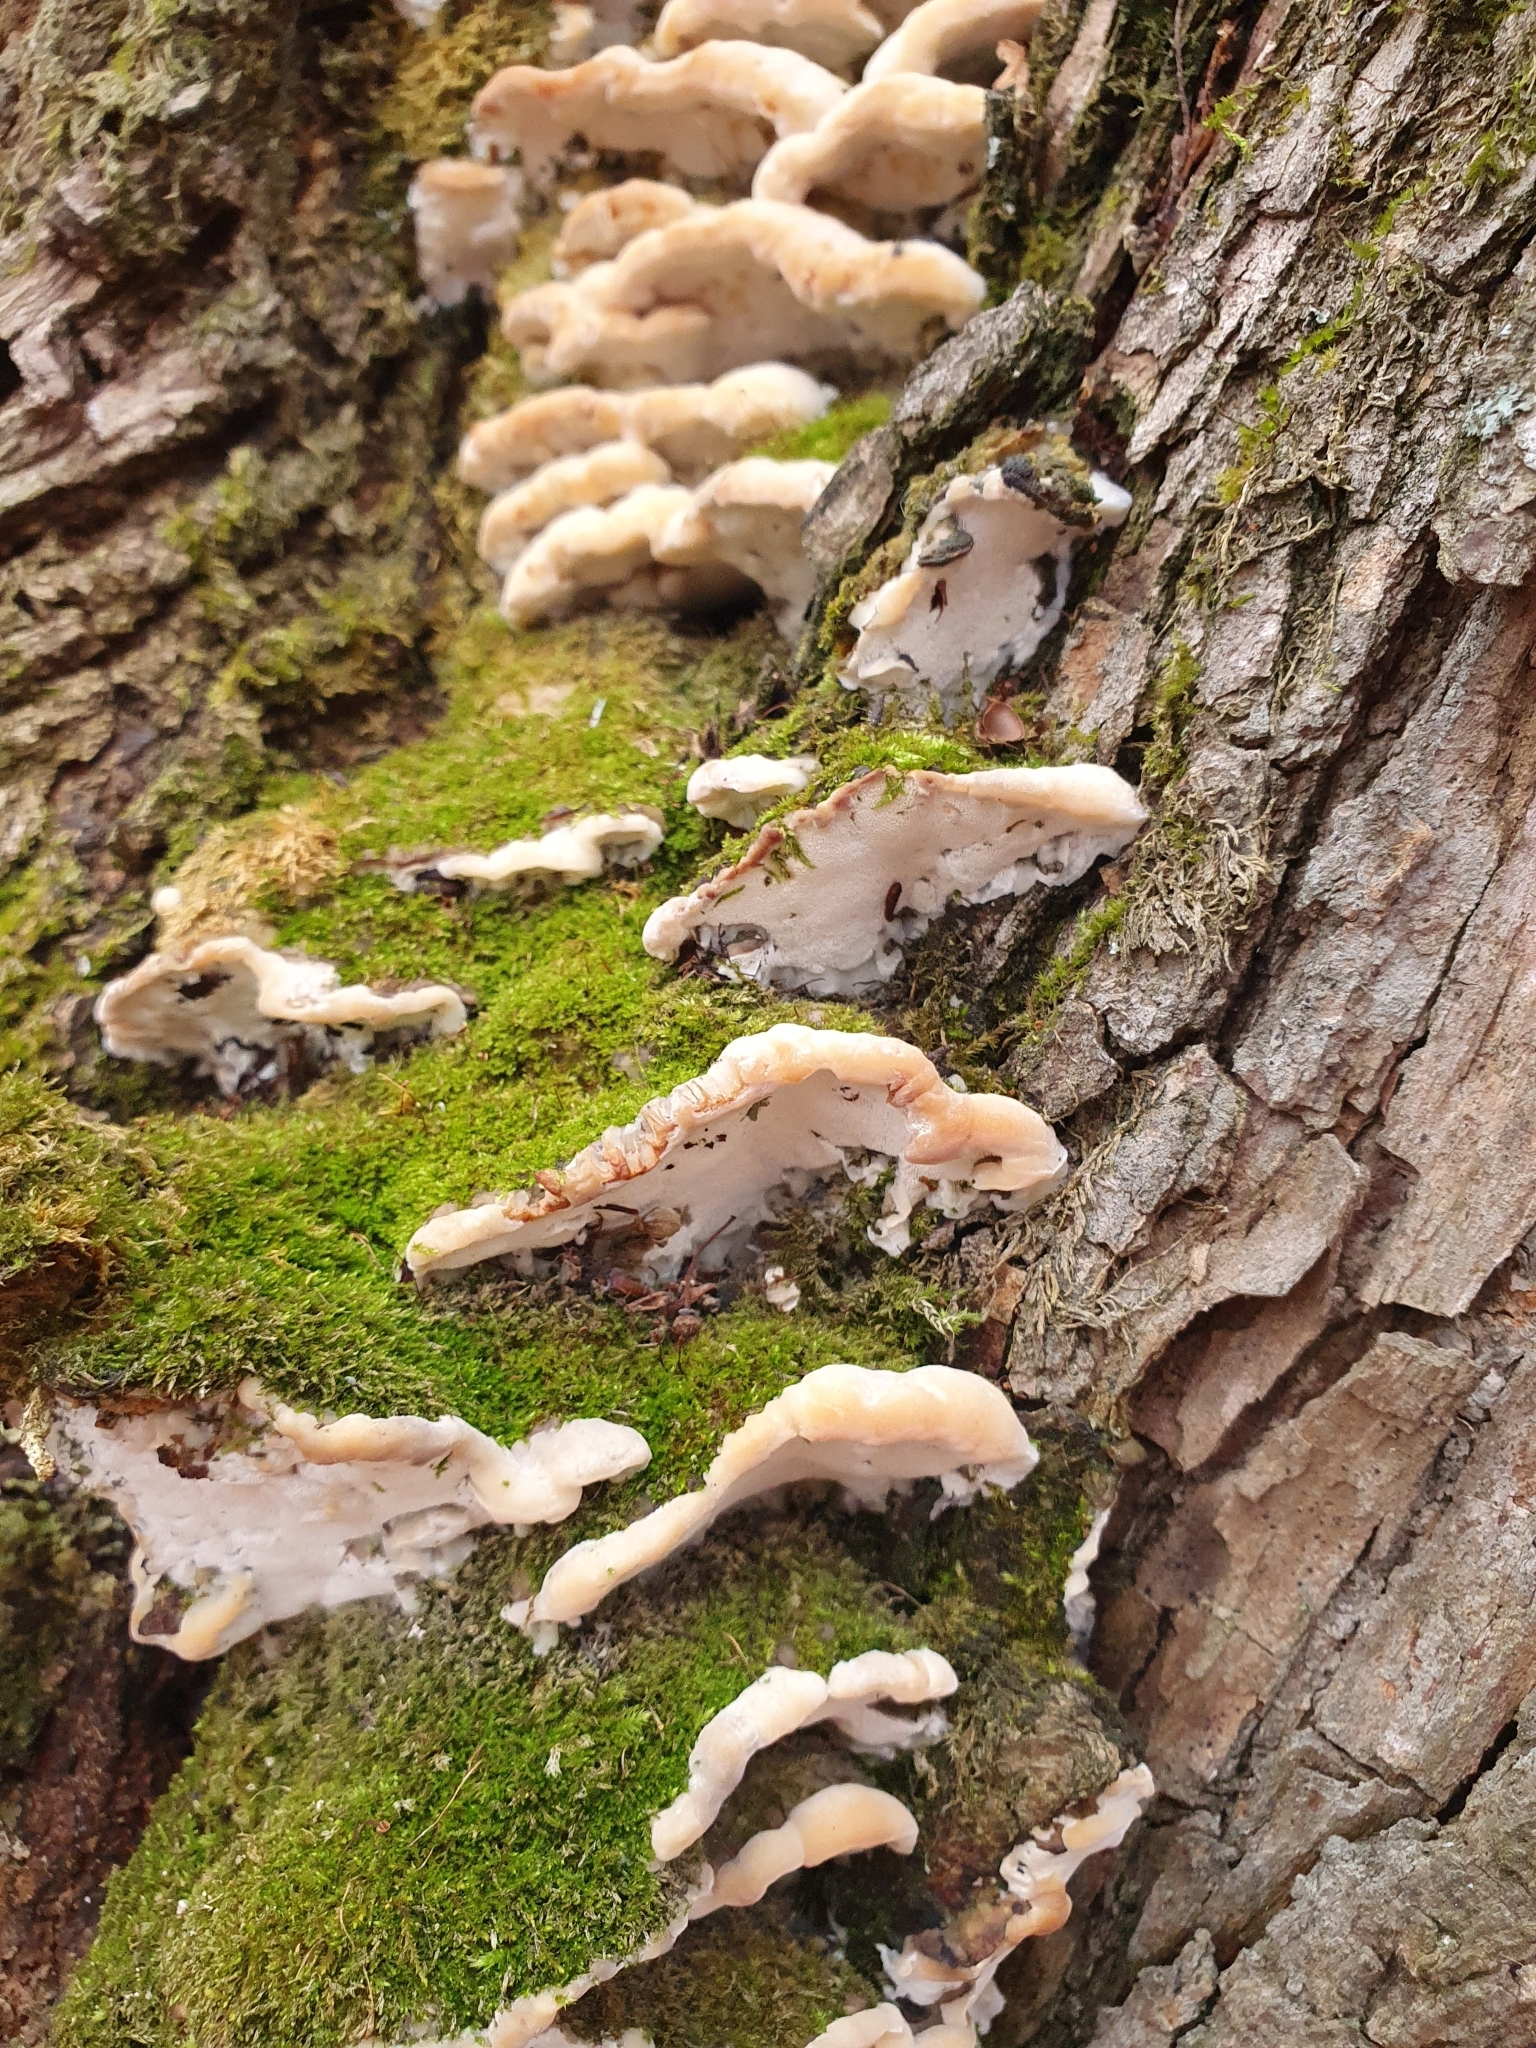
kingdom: Fungi
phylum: Basidiomycota
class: Agaricomycetes
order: Hymenochaetales
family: Oxyporaceae
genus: Oxyporus
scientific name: Oxyporus populinus
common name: Poplar bracket
